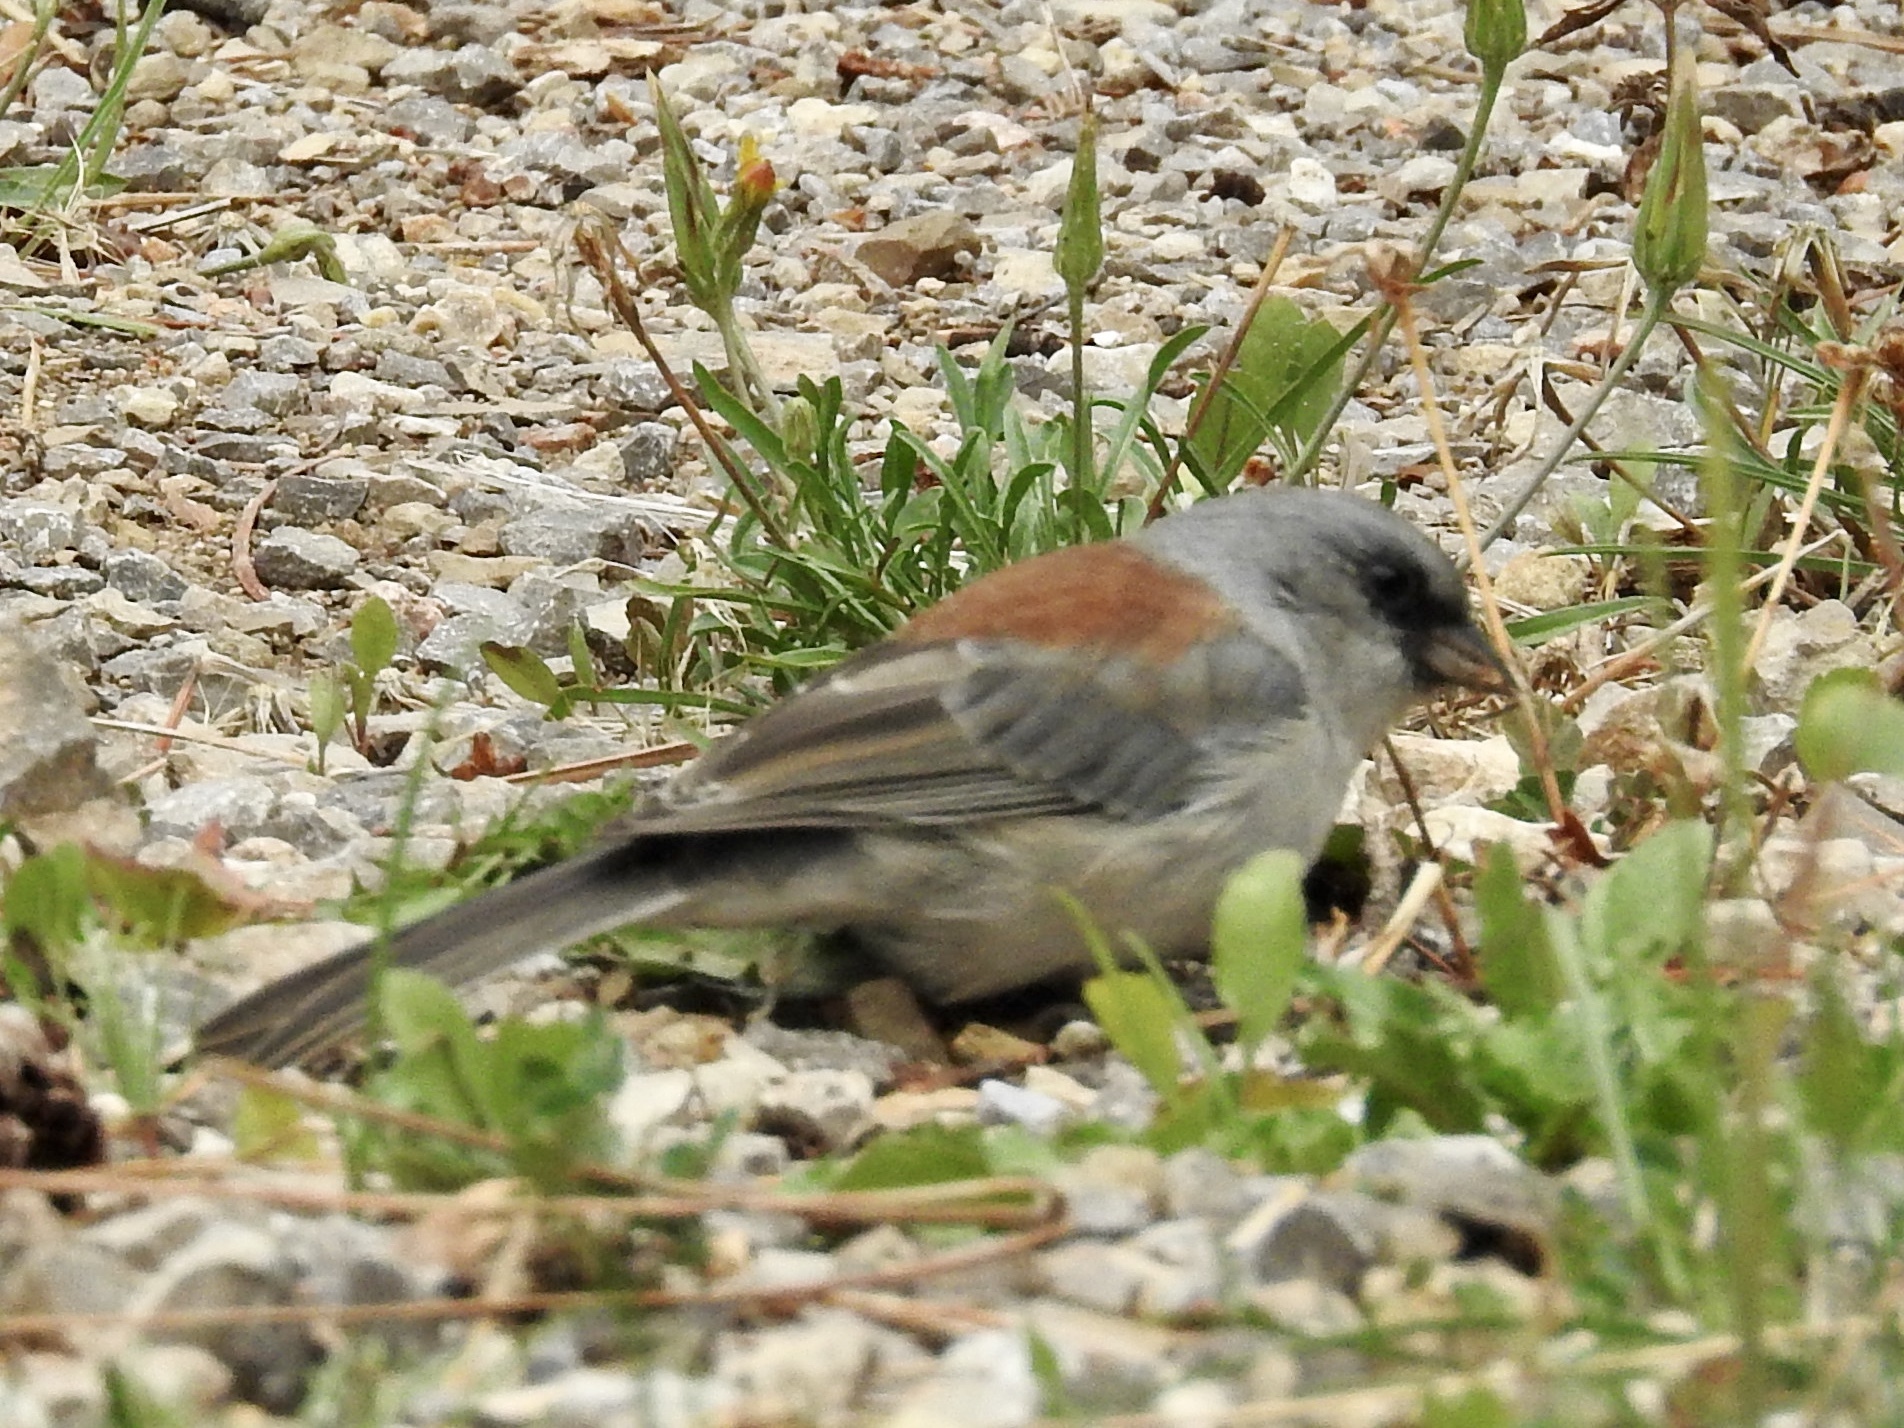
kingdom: Animalia
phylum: Chordata
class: Aves
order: Passeriformes
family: Passerellidae
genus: Junco
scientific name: Junco hyemalis
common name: Dark-eyed junco
